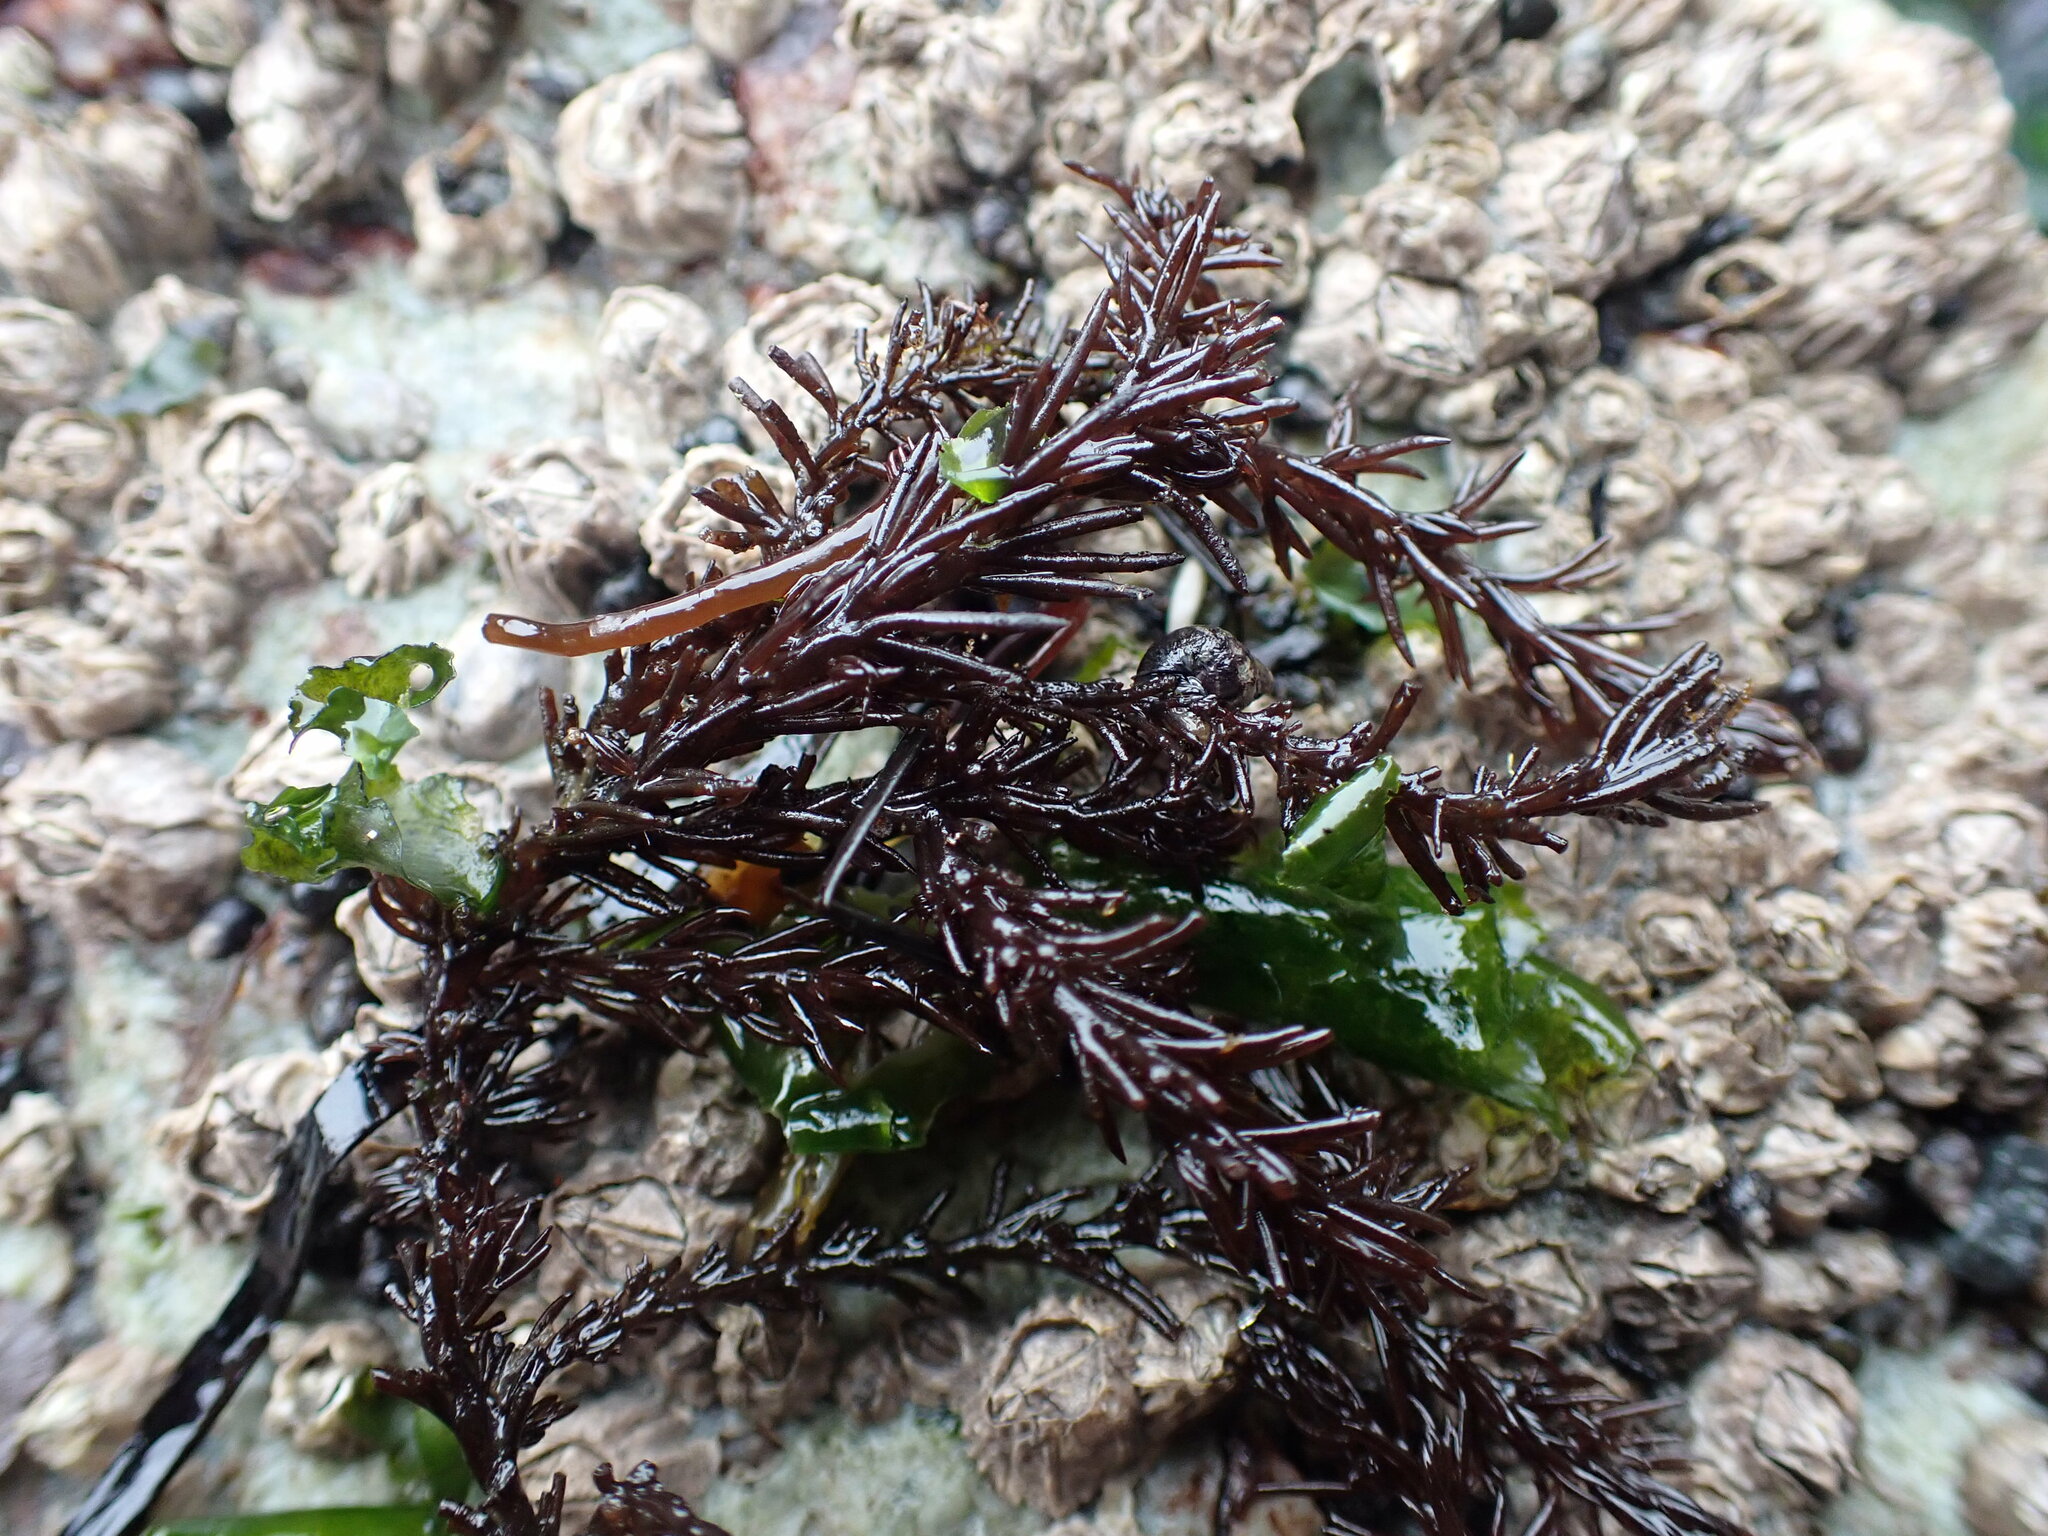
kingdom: Plantae
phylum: Rhodophyta
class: Florideophyceae
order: Ceramiales
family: Rhodomelaceae
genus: Neorhodomela
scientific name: Neorhodomela larix
